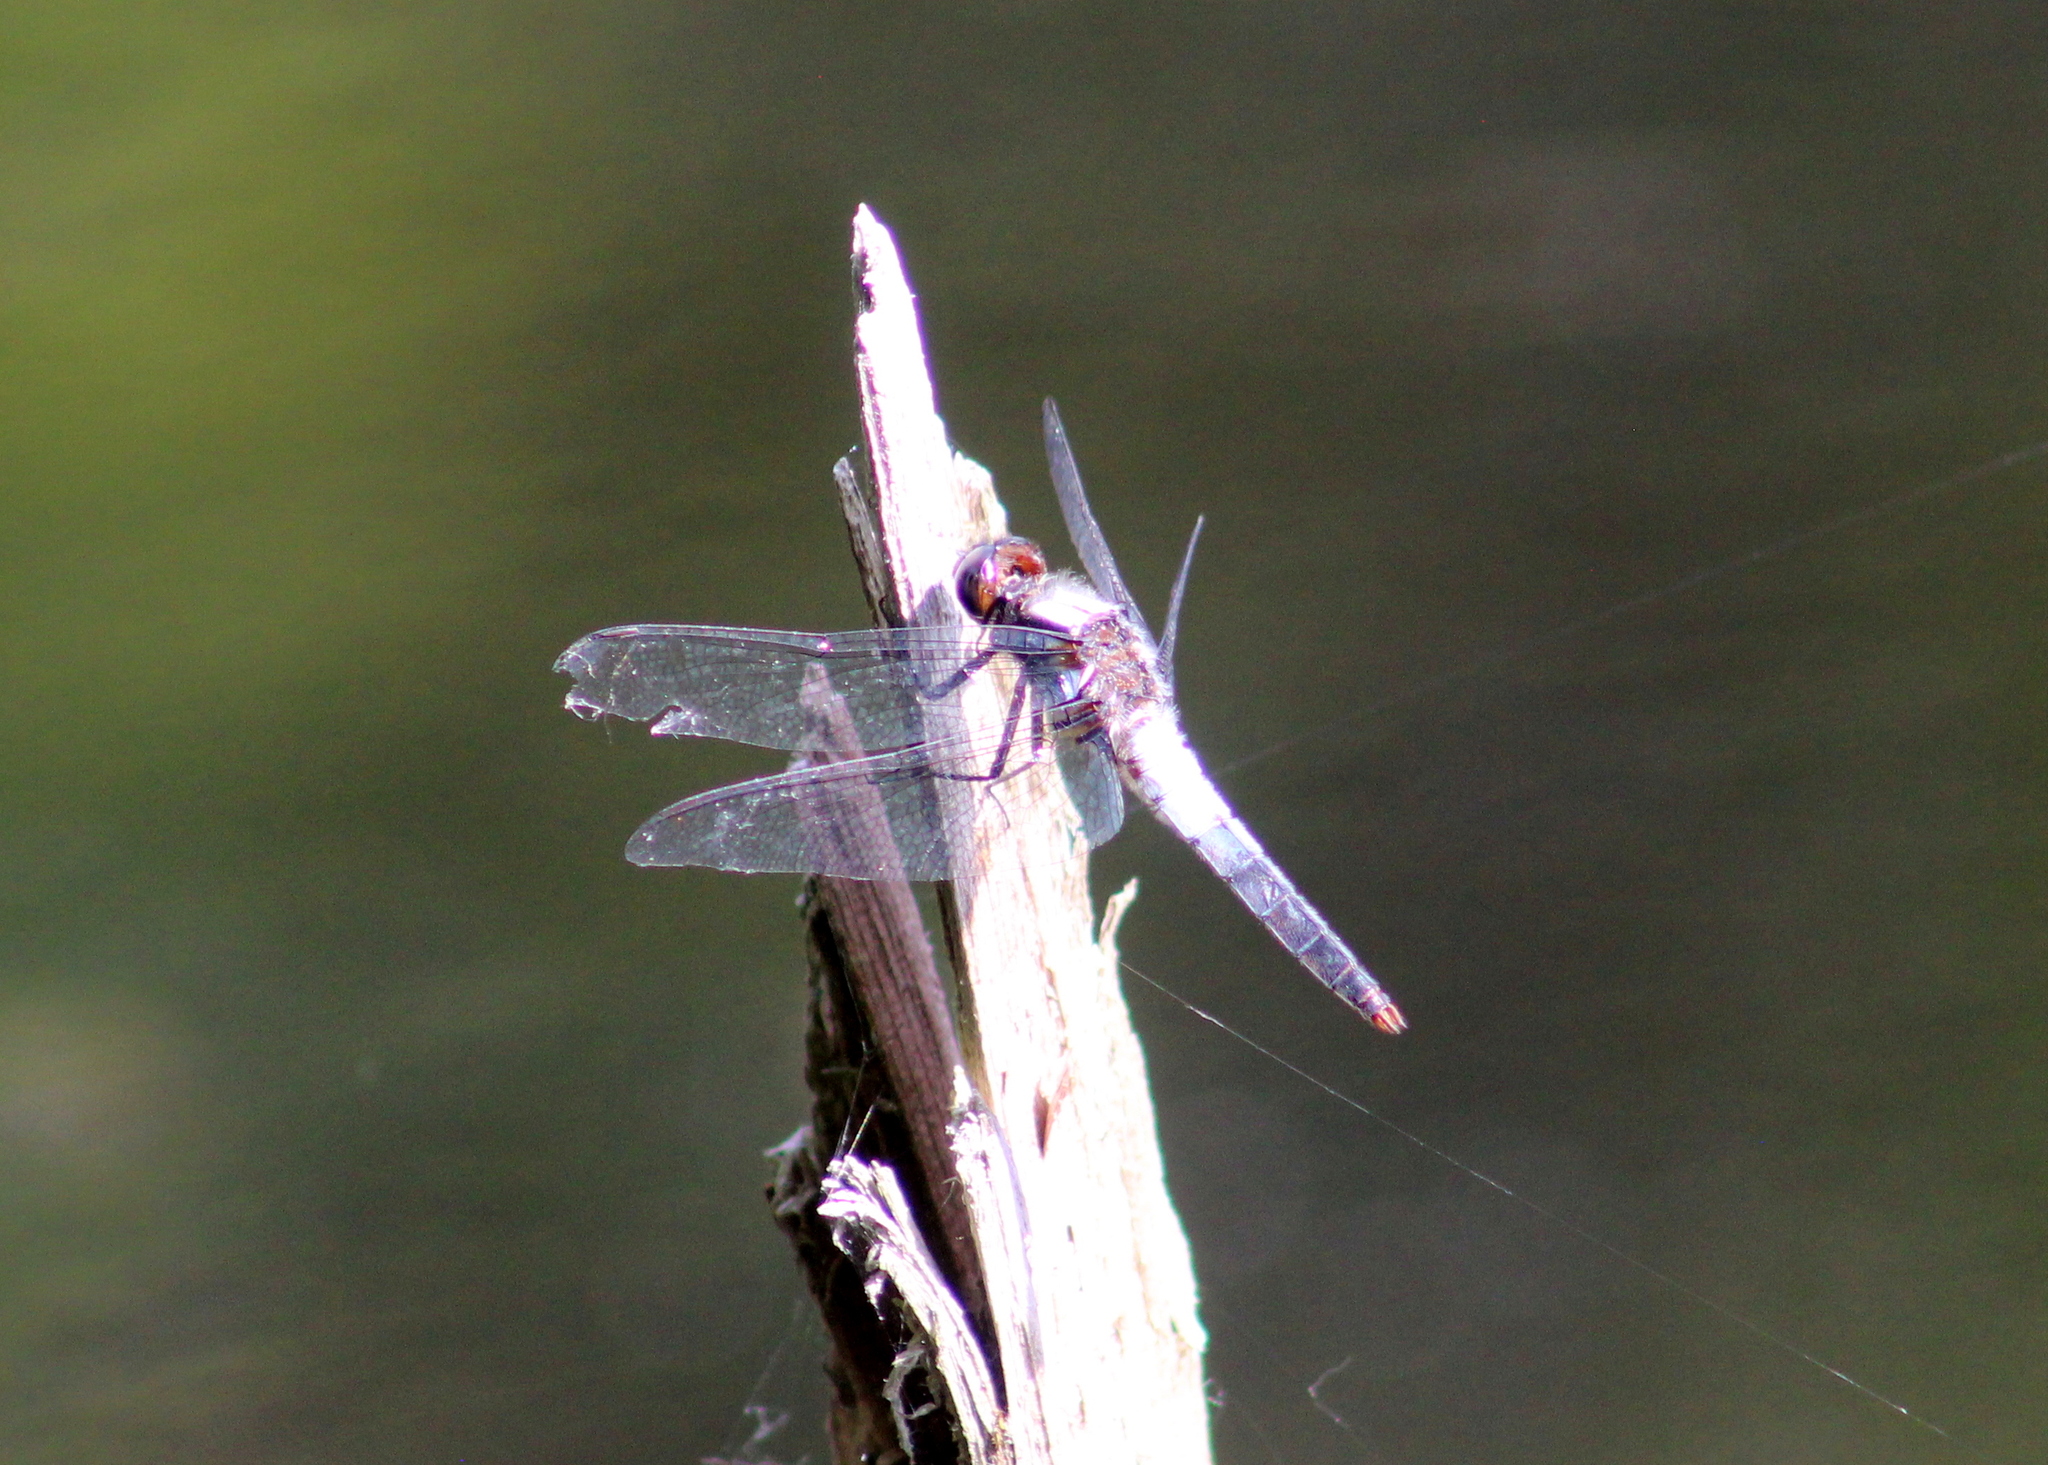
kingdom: Animalia
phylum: Arthropoda
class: Insecta
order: Odonata
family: Libellulidae
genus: Ladona
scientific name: Ladona julia
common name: Chalk-fronted corporal
